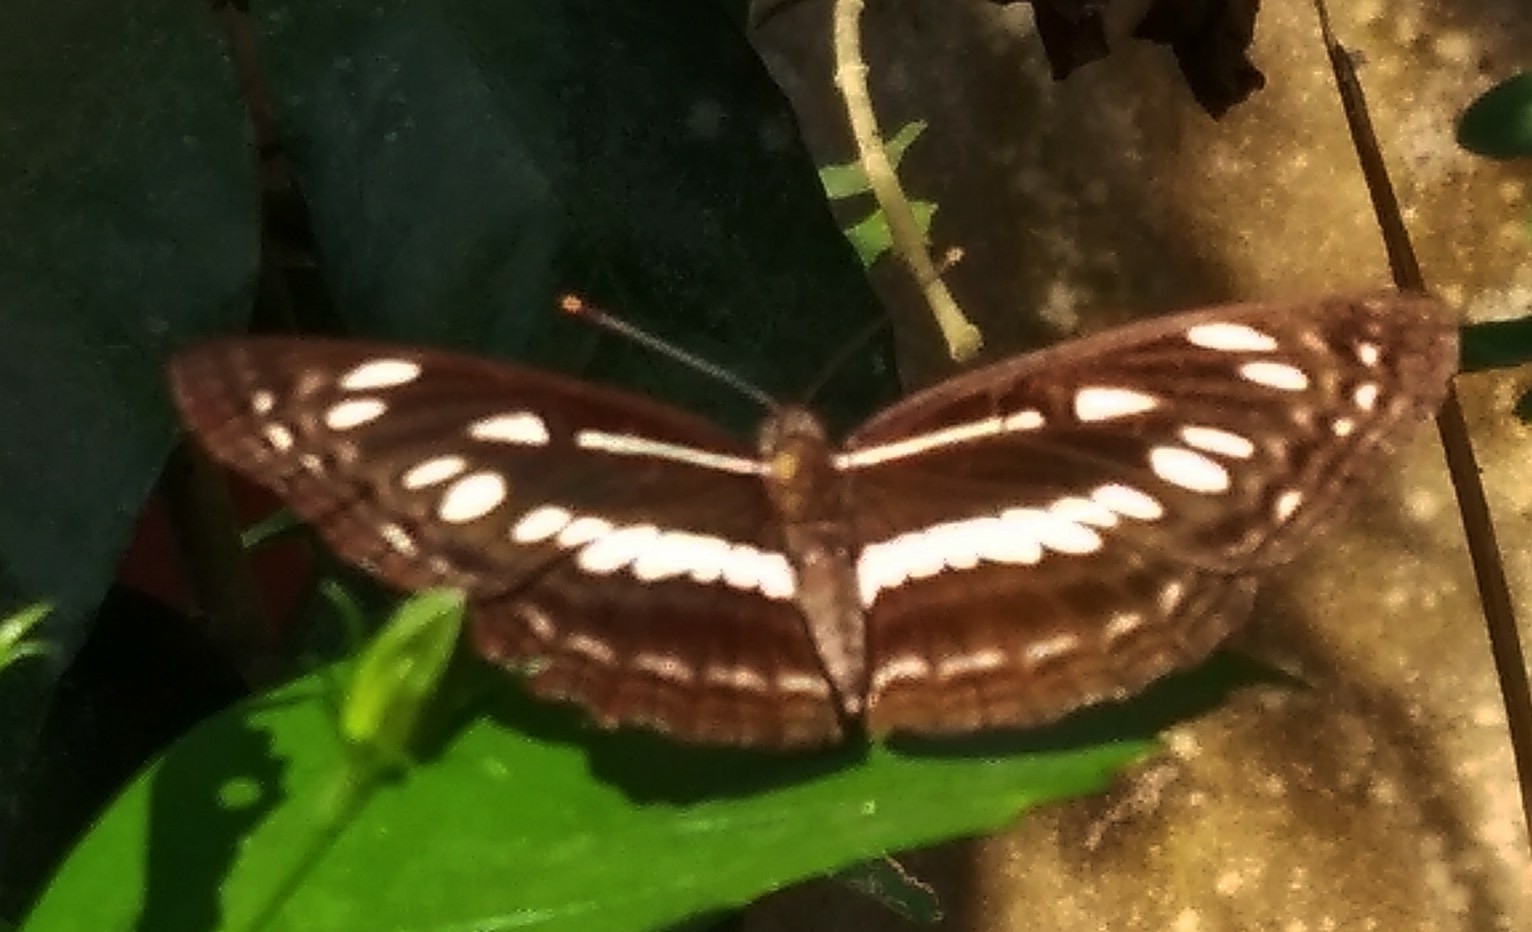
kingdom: Animalia
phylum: Arthropoda
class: Insecta
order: Lepidoptera
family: Nymphalidae
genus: Neptis
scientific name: Neptis jumbah
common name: Chestnut-streaked sailer
